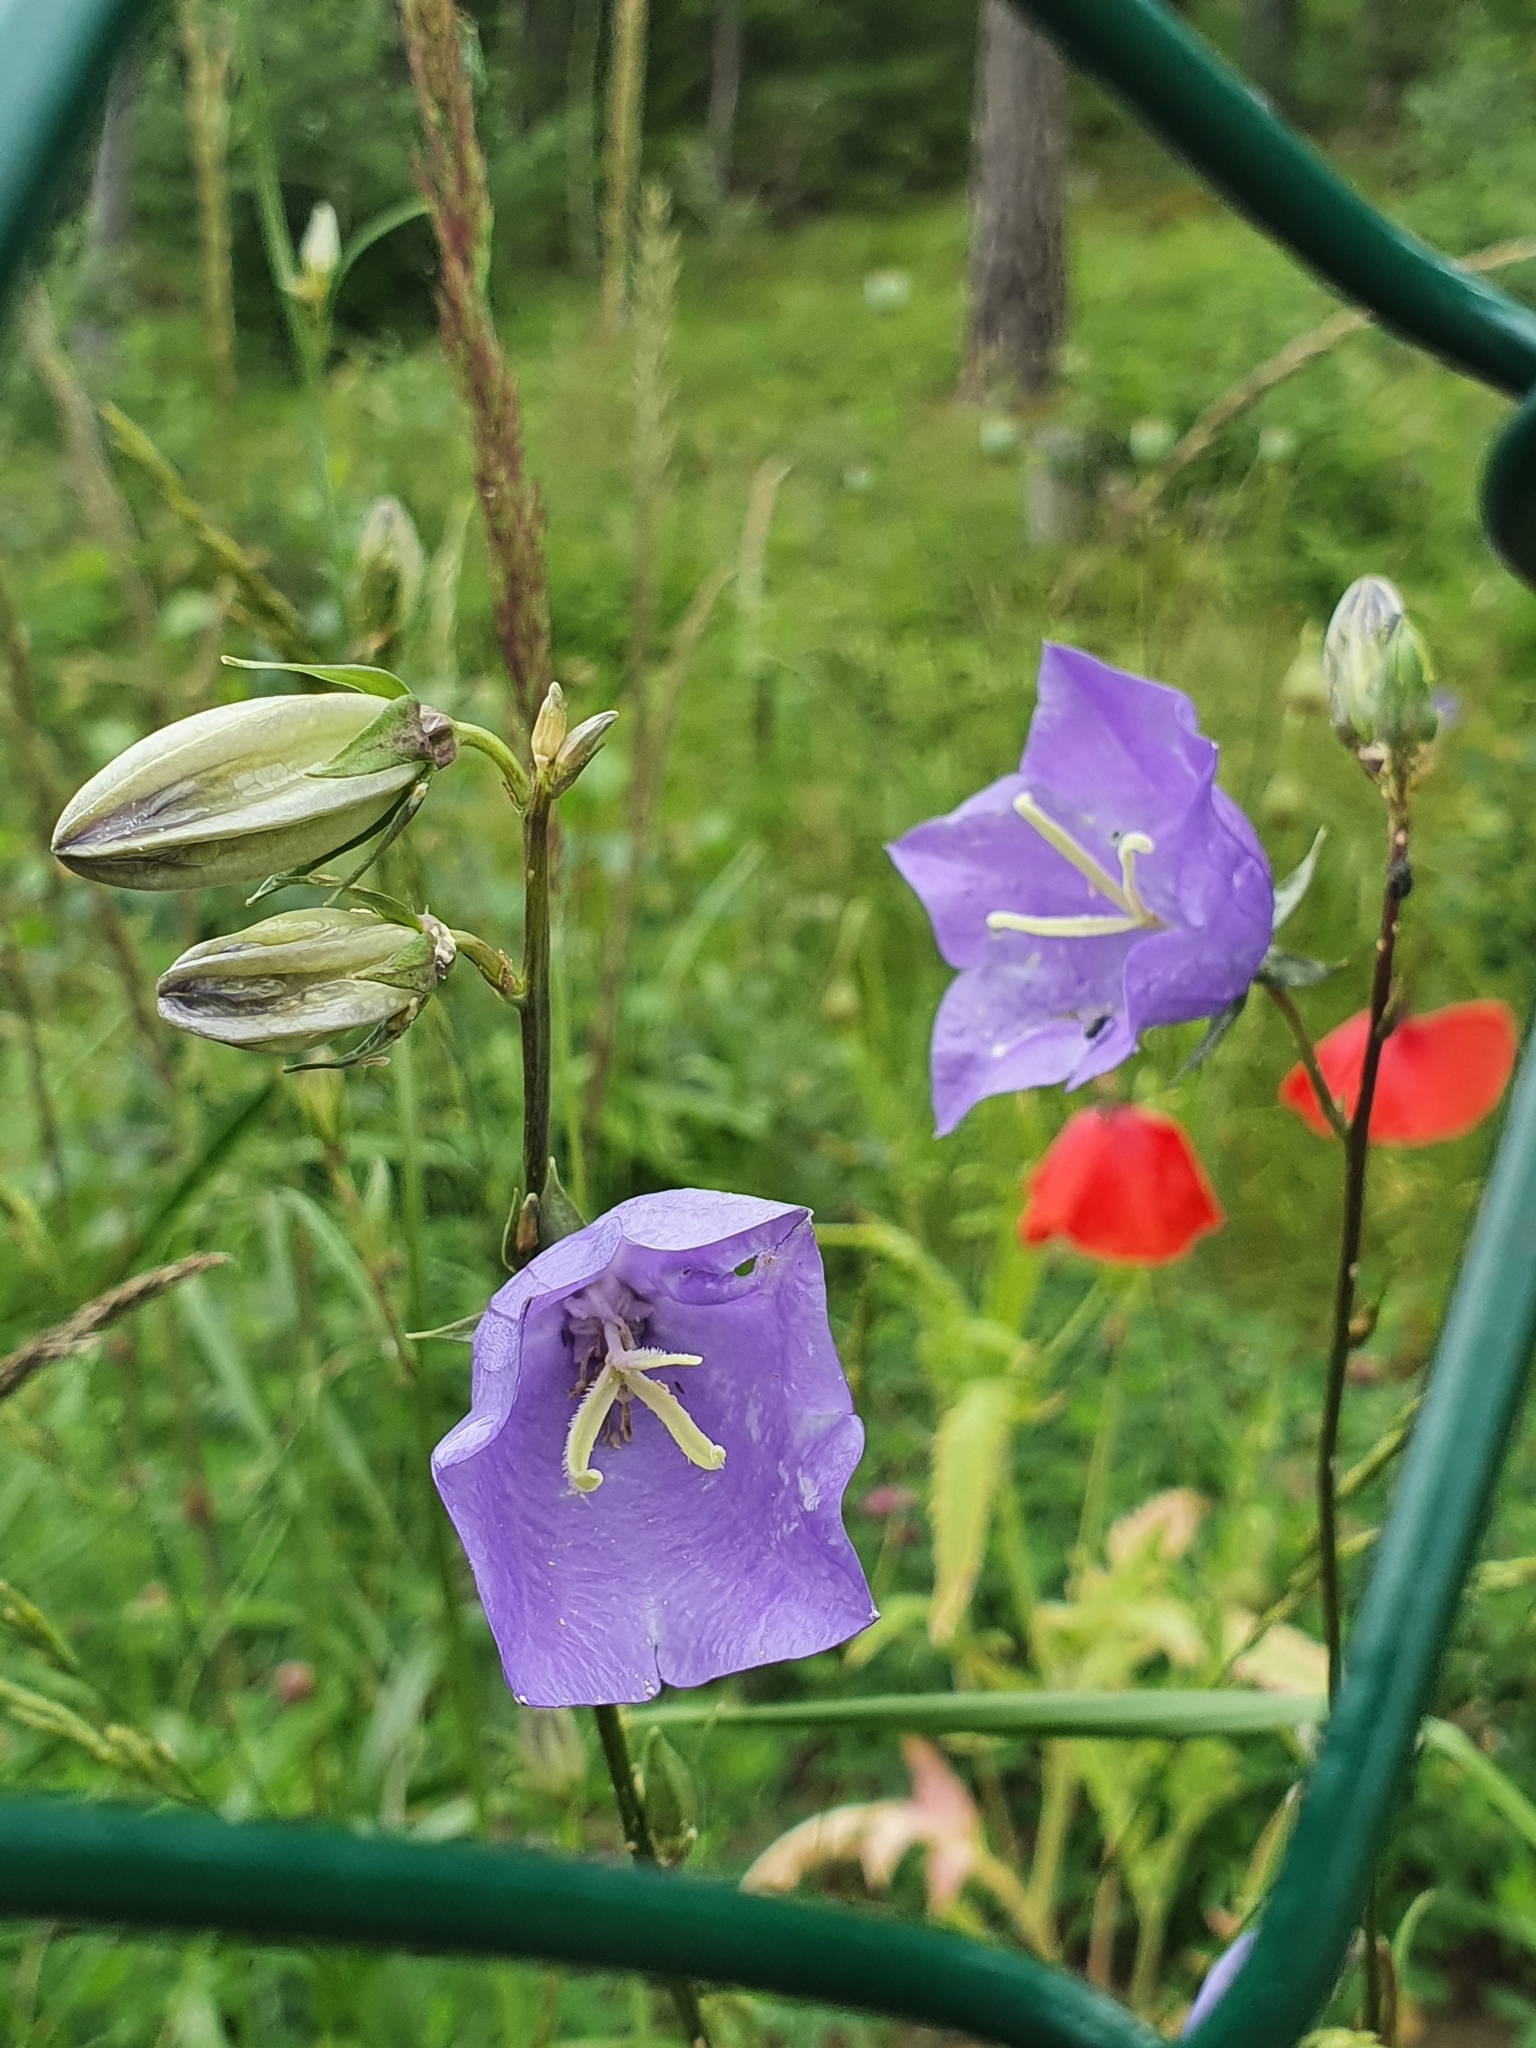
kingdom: Plantae
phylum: Tracheophyta
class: Magnoliopsida
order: Asterales
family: Campanulaceae
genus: Campanula
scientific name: Campanula persicifolia
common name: Peach-leaved bellflower
